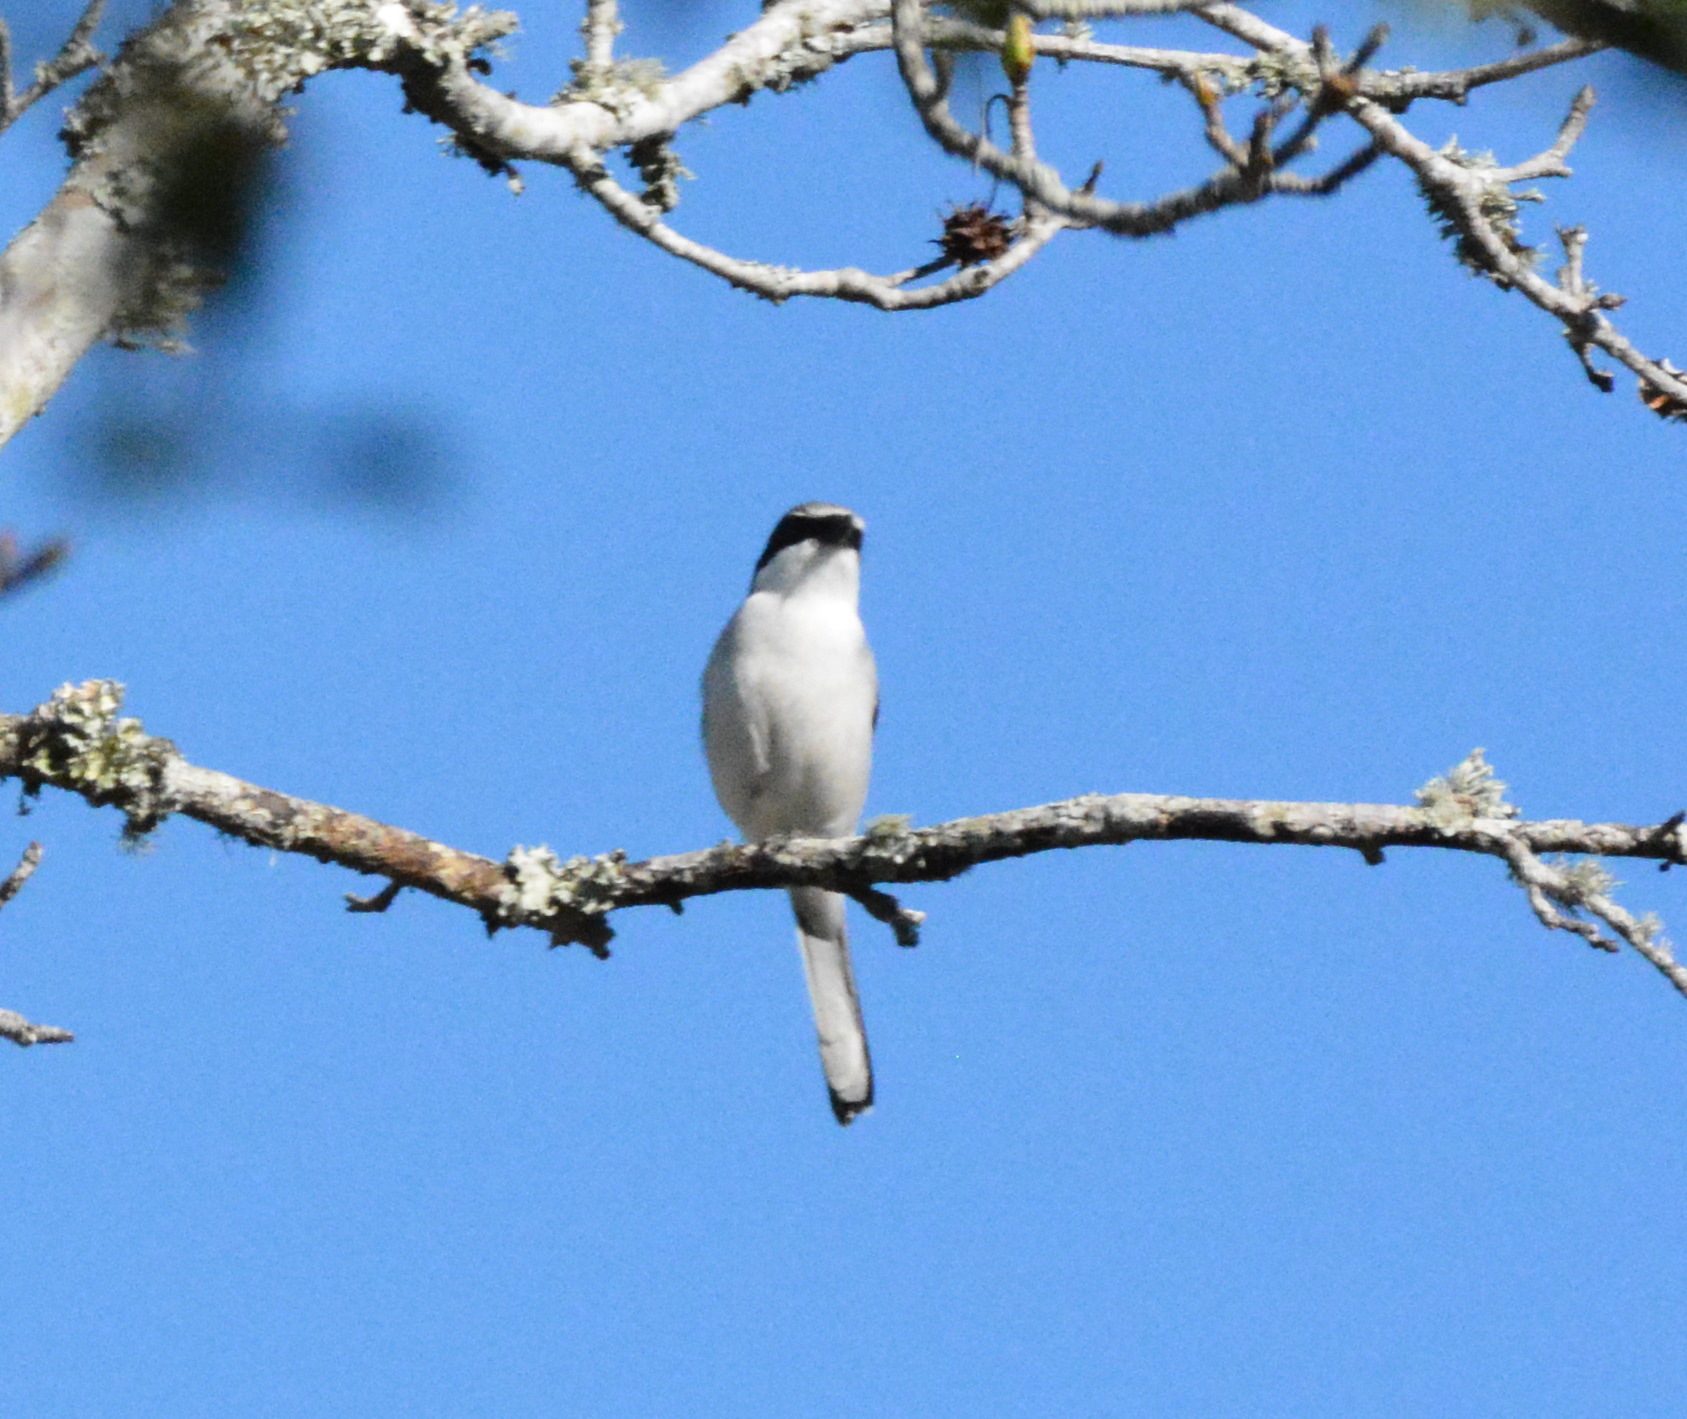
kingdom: Animalia
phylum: Chordata
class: Aves
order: Passeriformes
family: Laniidae
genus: Lanius
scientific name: Lanius ludovicianus
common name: Loggerhead shrike
